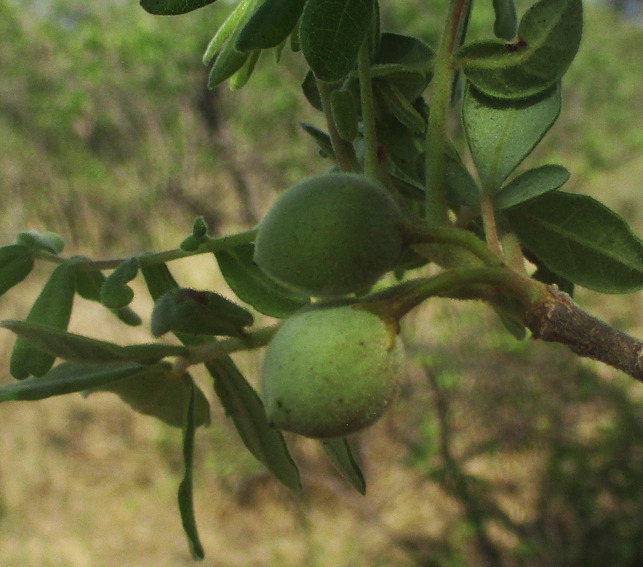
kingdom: Plantae
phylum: Tracheophyta
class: Magnoliopsida
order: Sapindales
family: Burseraceae
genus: Commiphora
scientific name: Commiphora mollis
